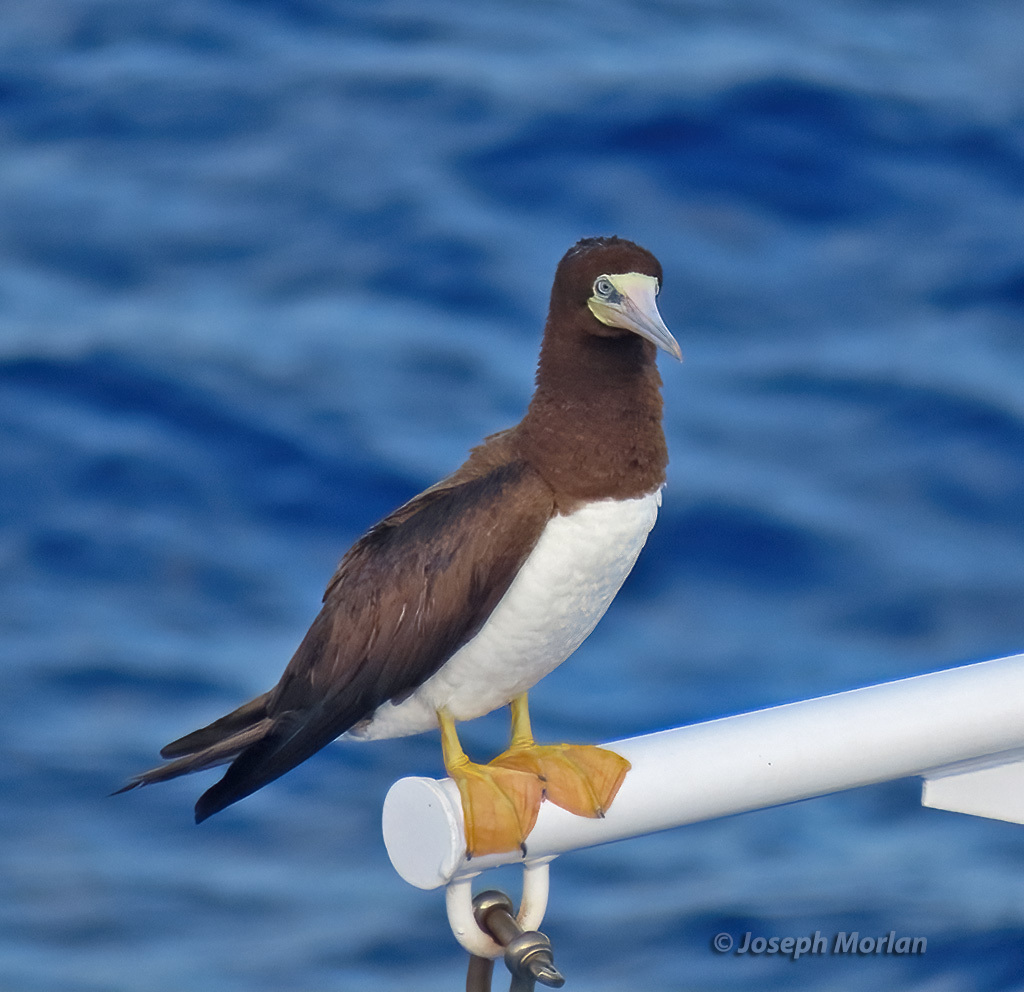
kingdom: Animalia
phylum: Chordata
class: Aves
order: Suliformes
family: Sulidae
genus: Sula
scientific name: Sula leucogaster
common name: Brown booby
